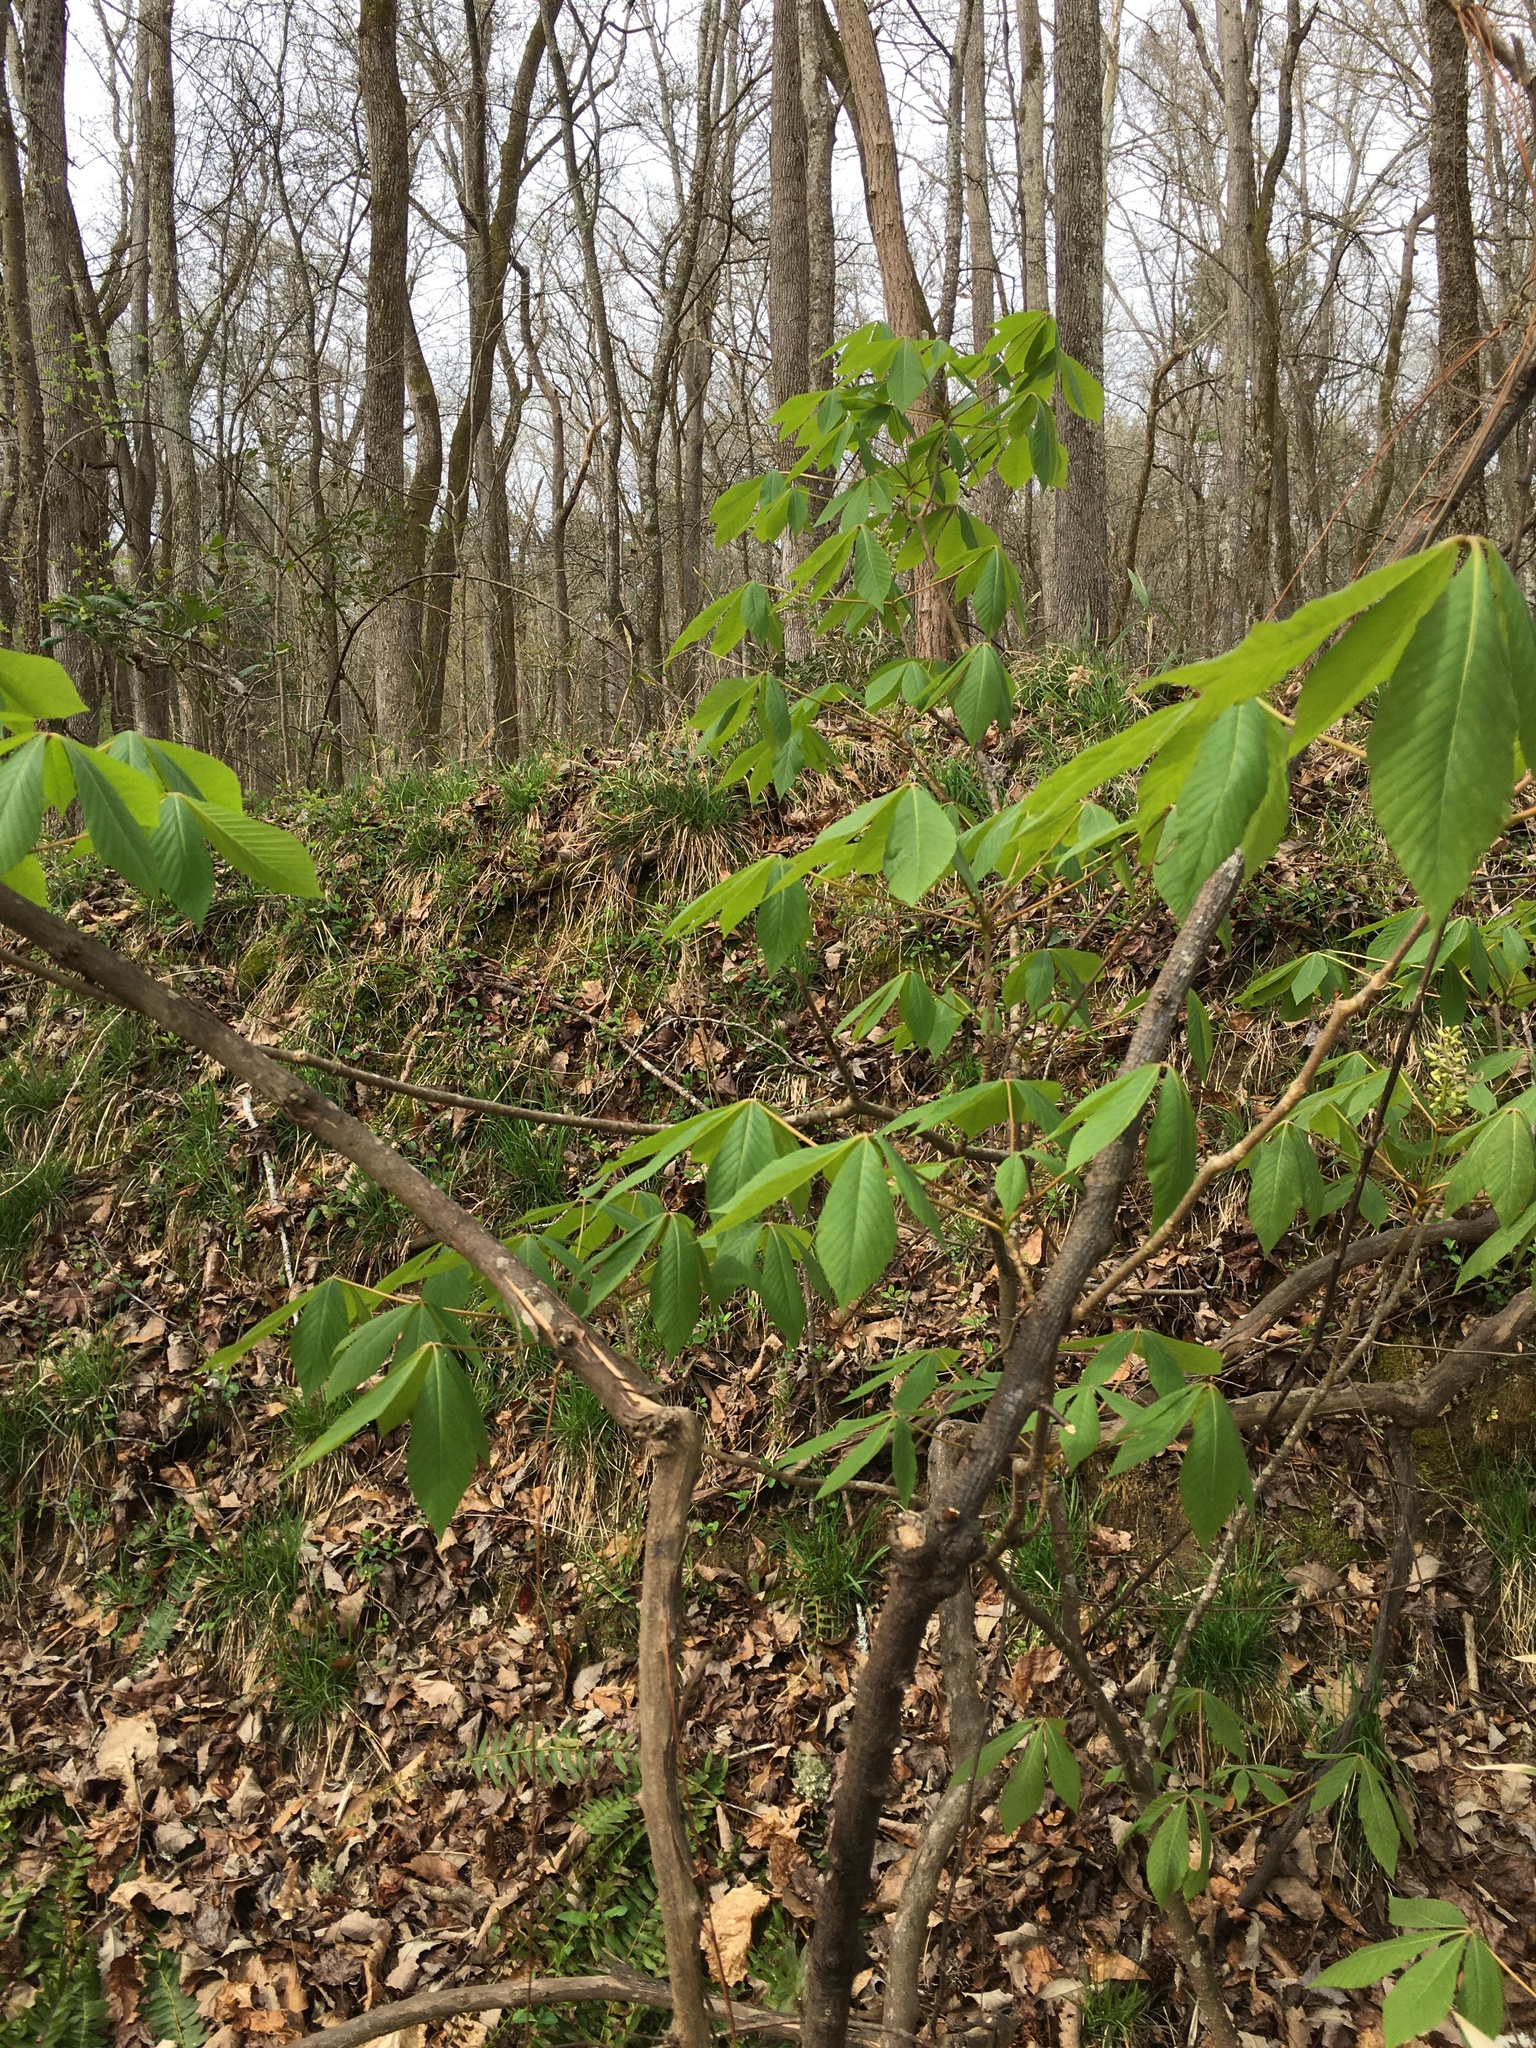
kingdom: Plantae
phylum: Tracheophyta
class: Magnoliopsida
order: Sapindales
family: Sapindaceae
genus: Aesculus
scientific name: Aesculus sylvatica
